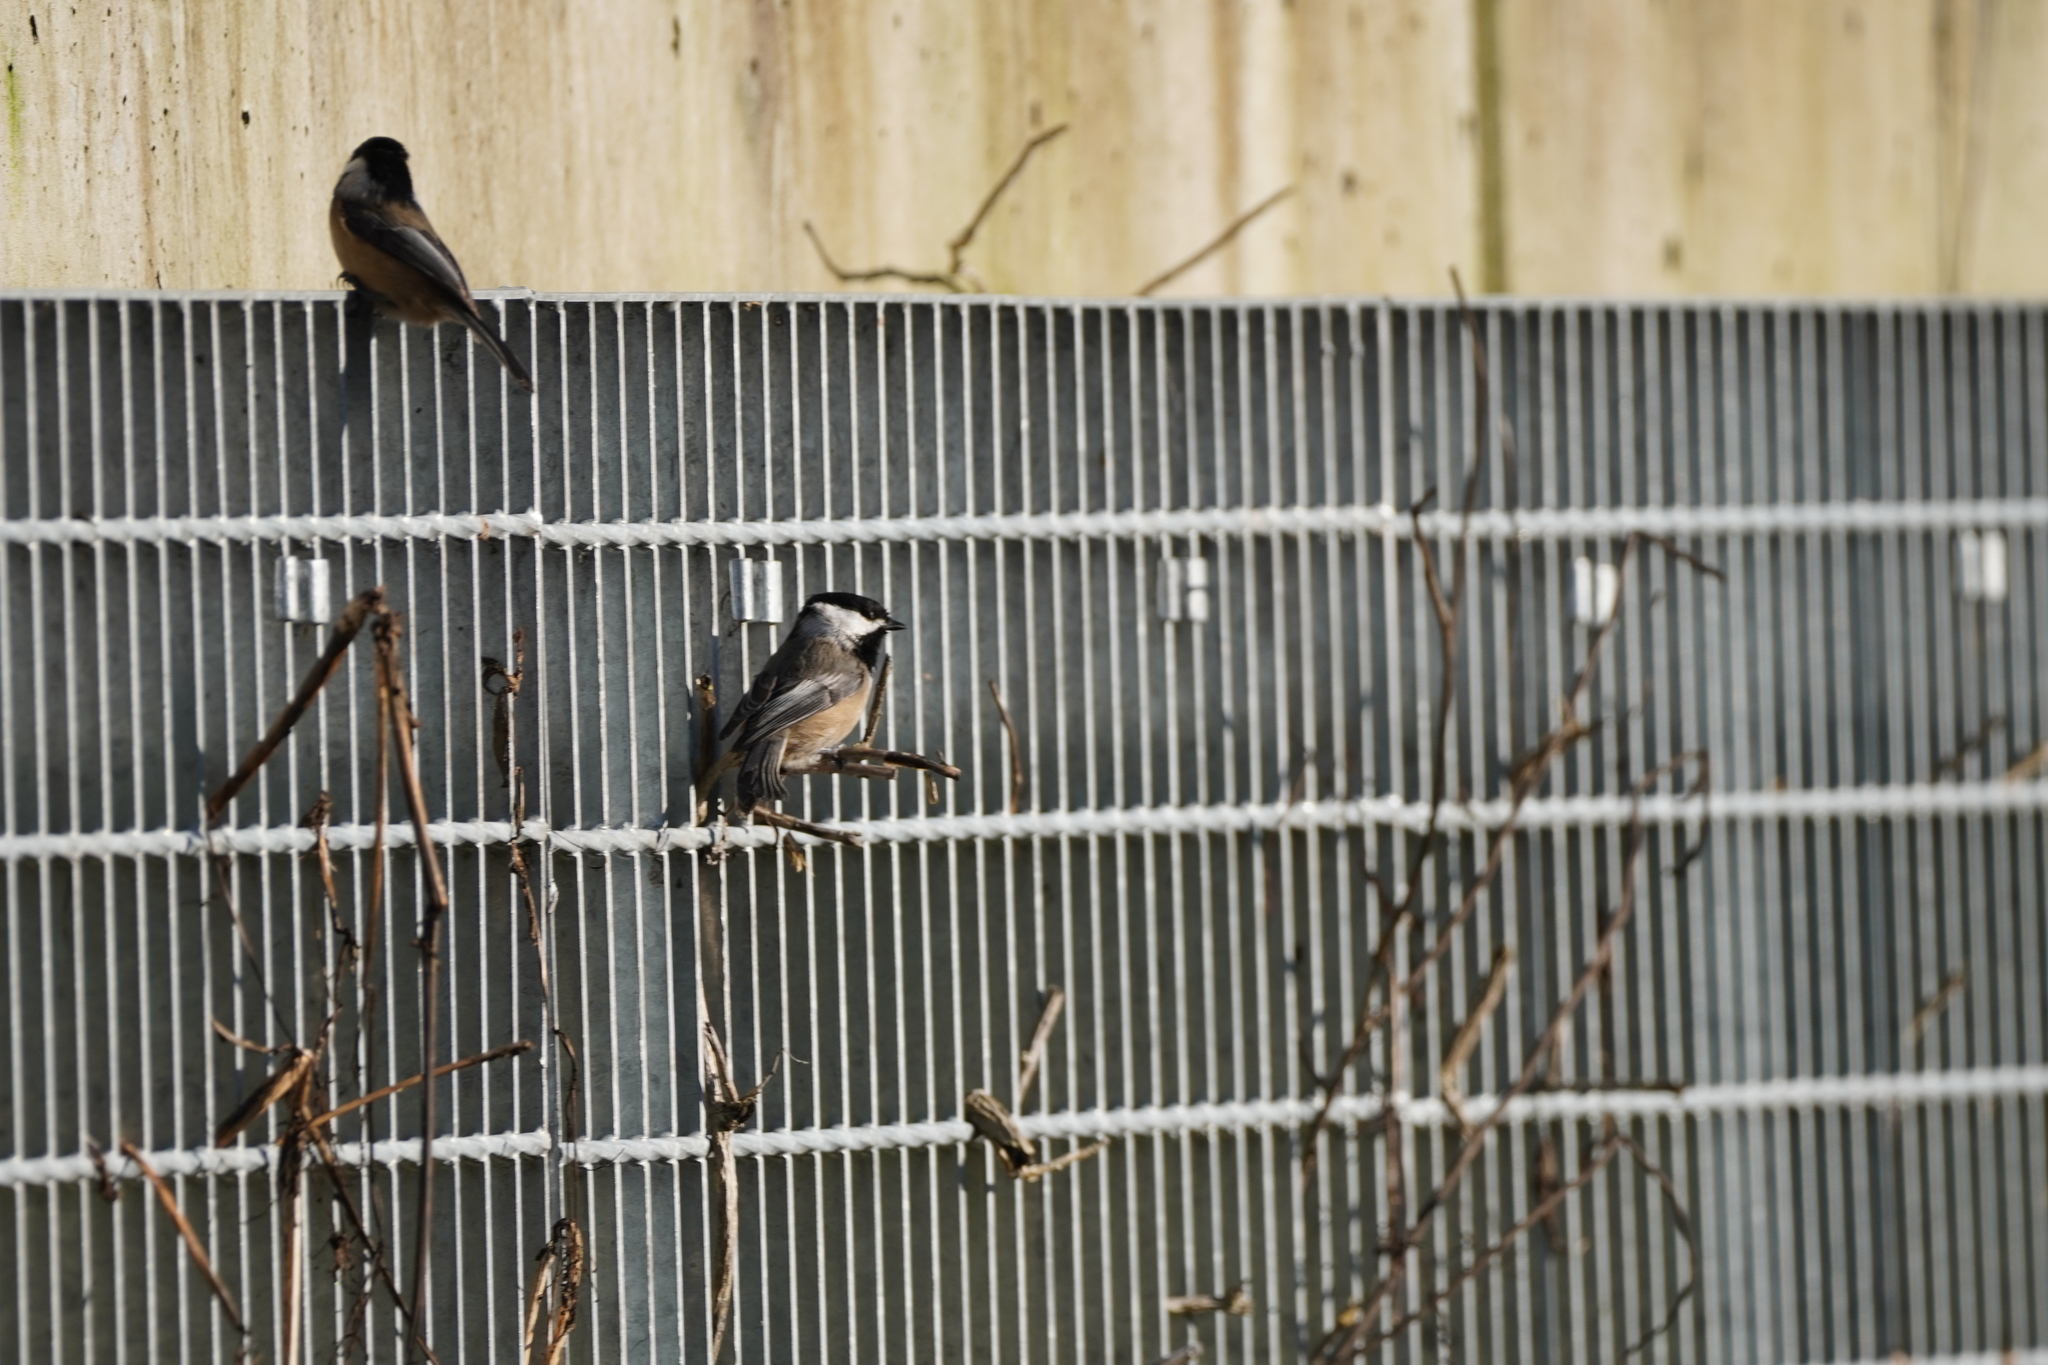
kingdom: Animalia
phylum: Chordata
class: Aves
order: Passeriformes
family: Paridae
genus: Poecile
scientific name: Poecile atricapillus
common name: Black-capped chickadee
